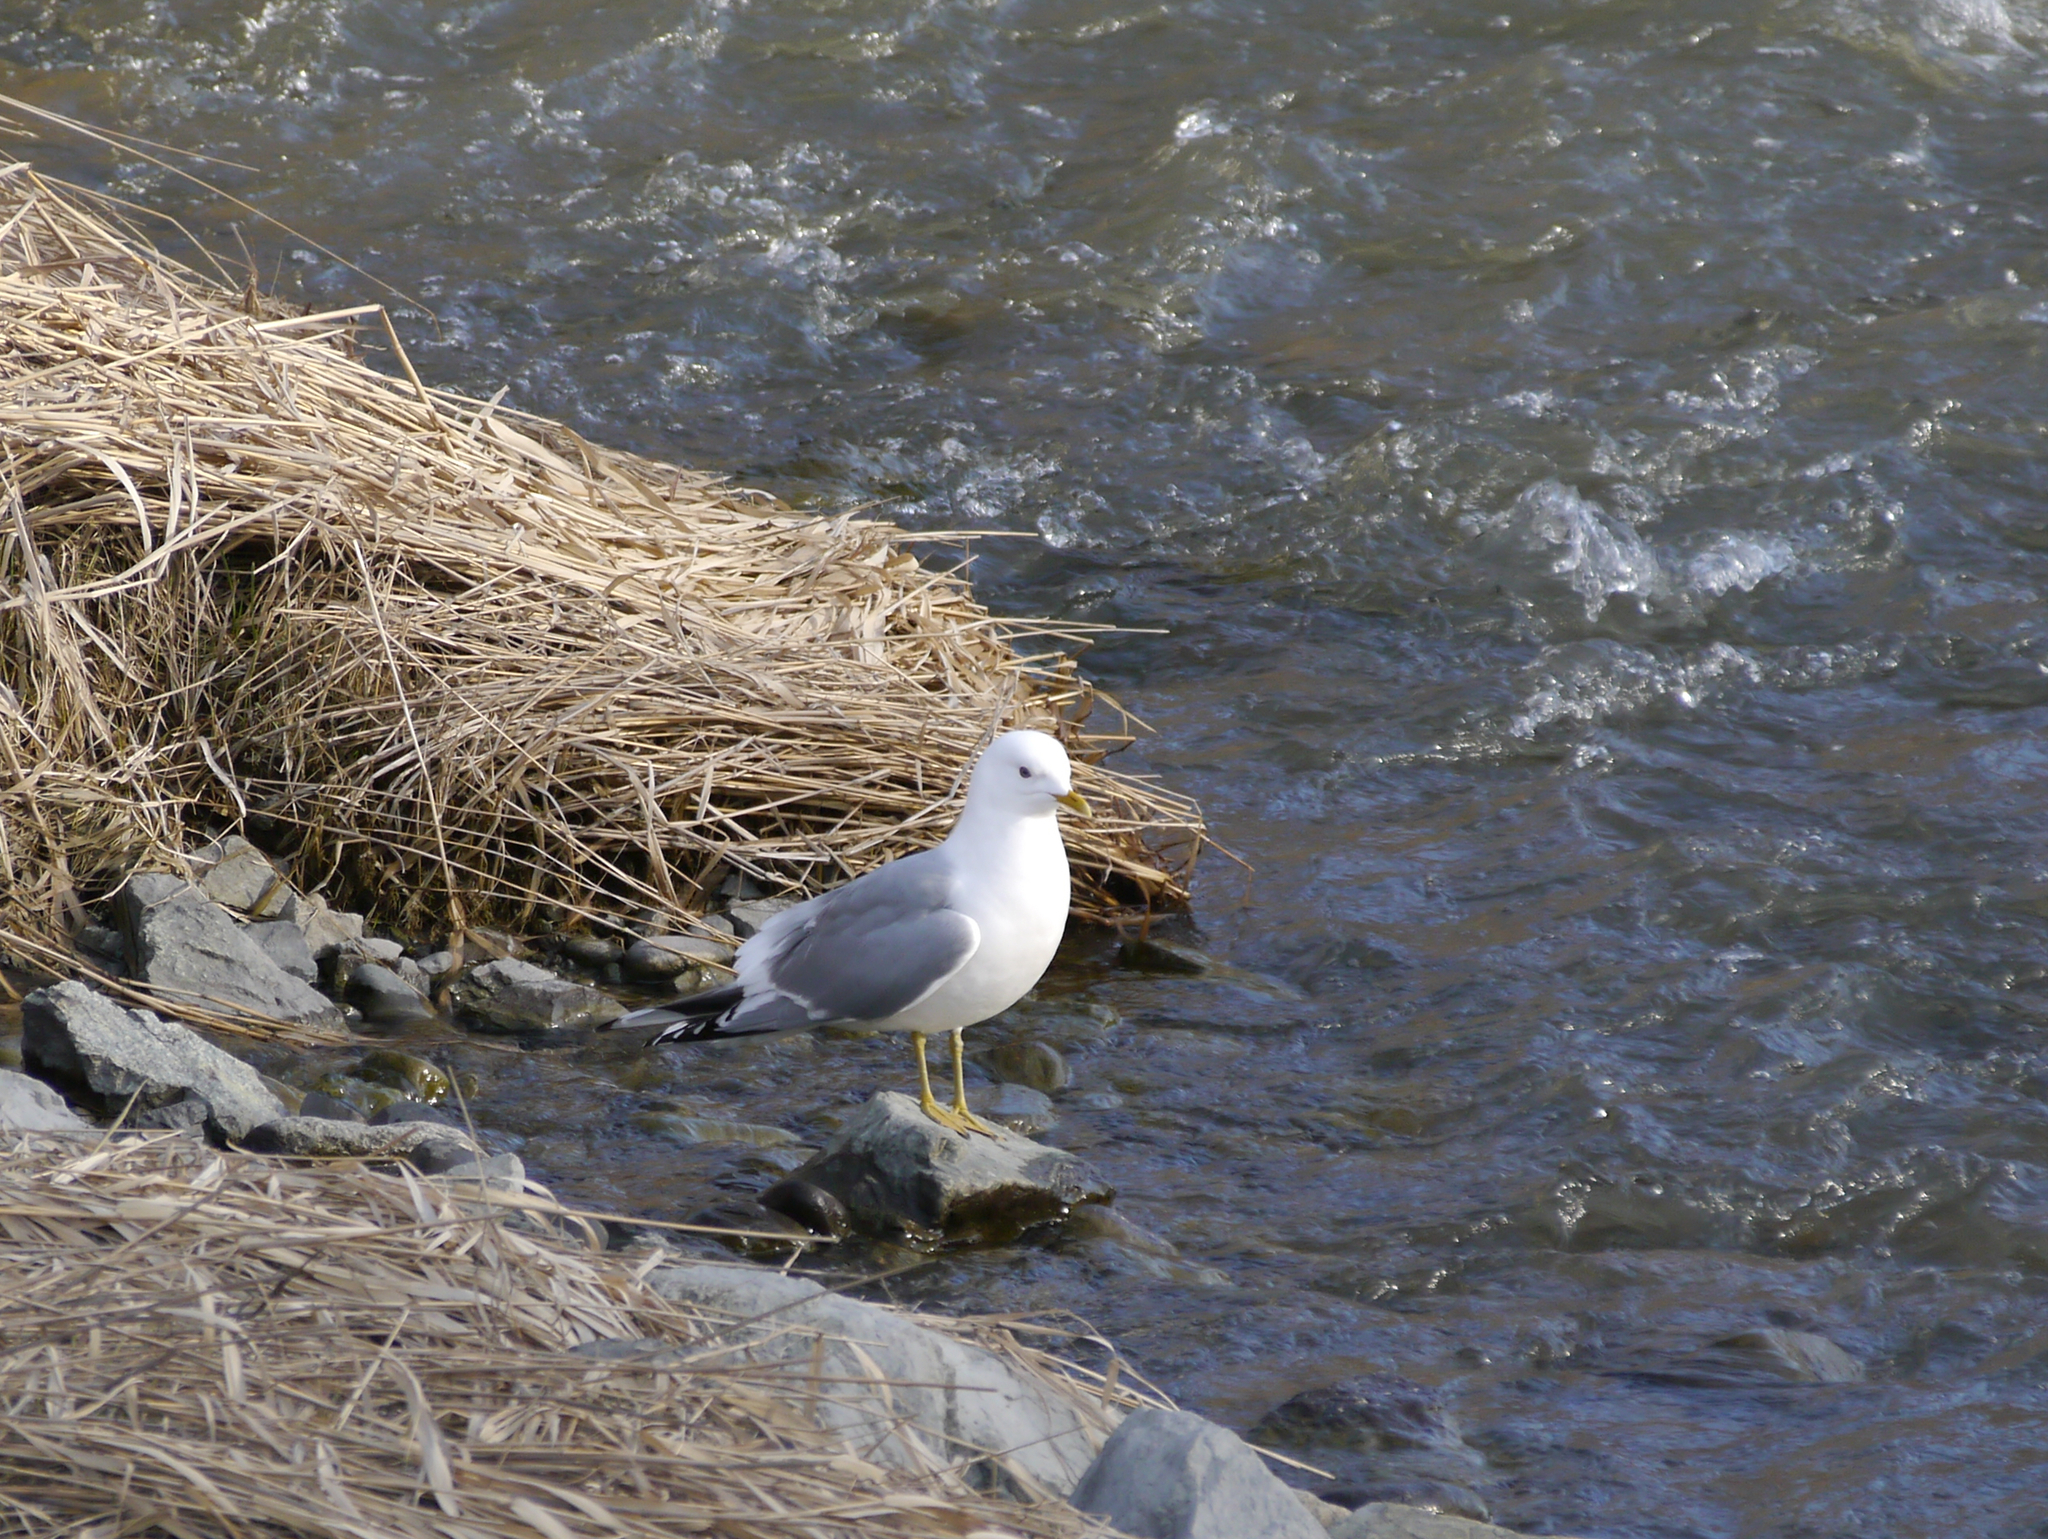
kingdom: Animalia
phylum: Chordata
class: Aves
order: Charadriiformes
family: Laridae
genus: Larus
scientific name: Larus brachyrhynchus
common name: Short-billed gull
